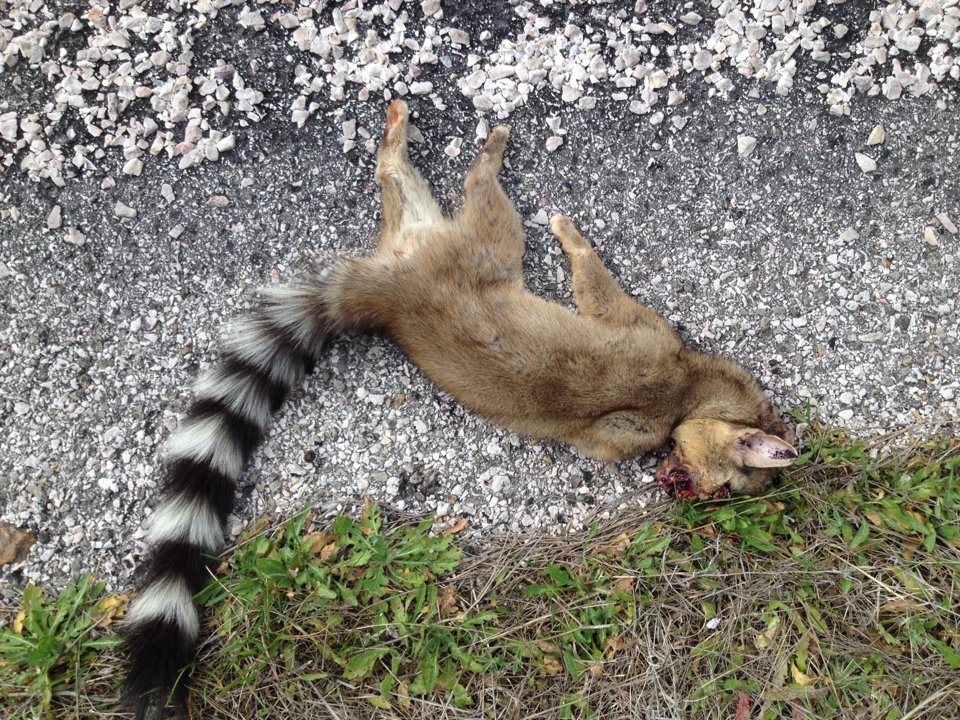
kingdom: Animalia
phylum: Chordata
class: Mammalia
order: Carnivora
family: Procyonidae
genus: Bassariscus
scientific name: Bassariscus astutus
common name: Ringtail
